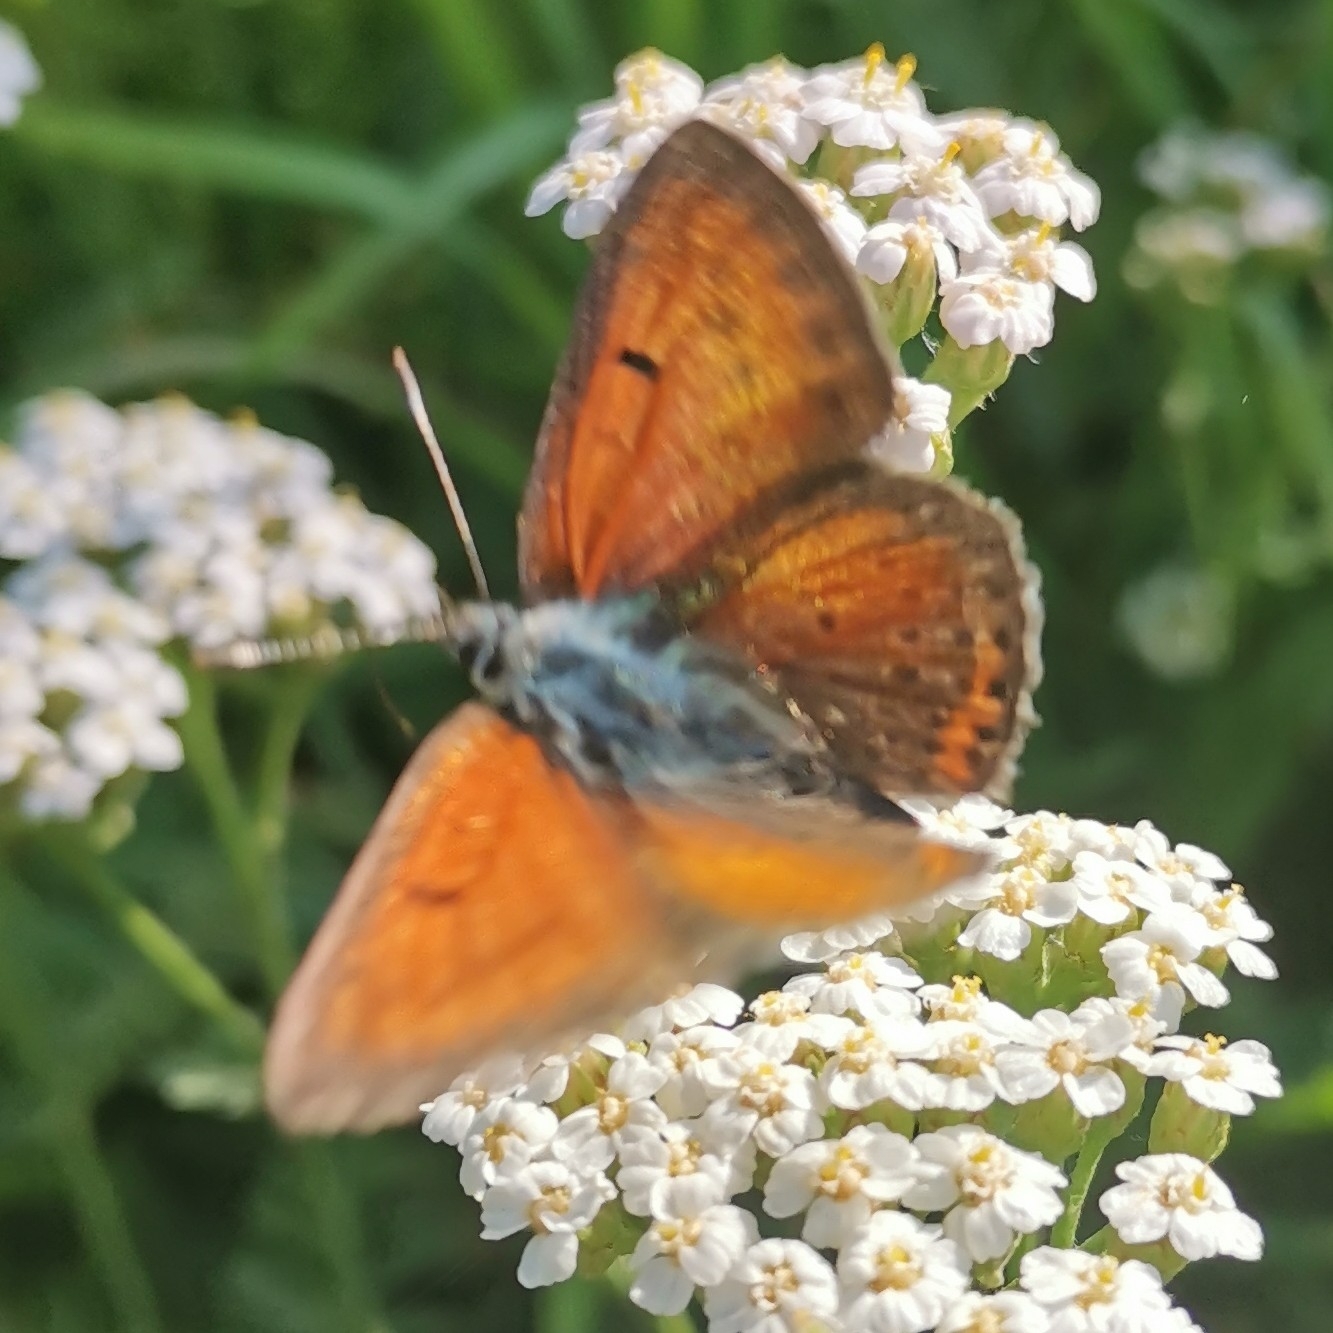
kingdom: Animalia
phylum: Arthropoda
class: Insecta
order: Lepidoptera
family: Lycaenidae
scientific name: Lycaenidae
